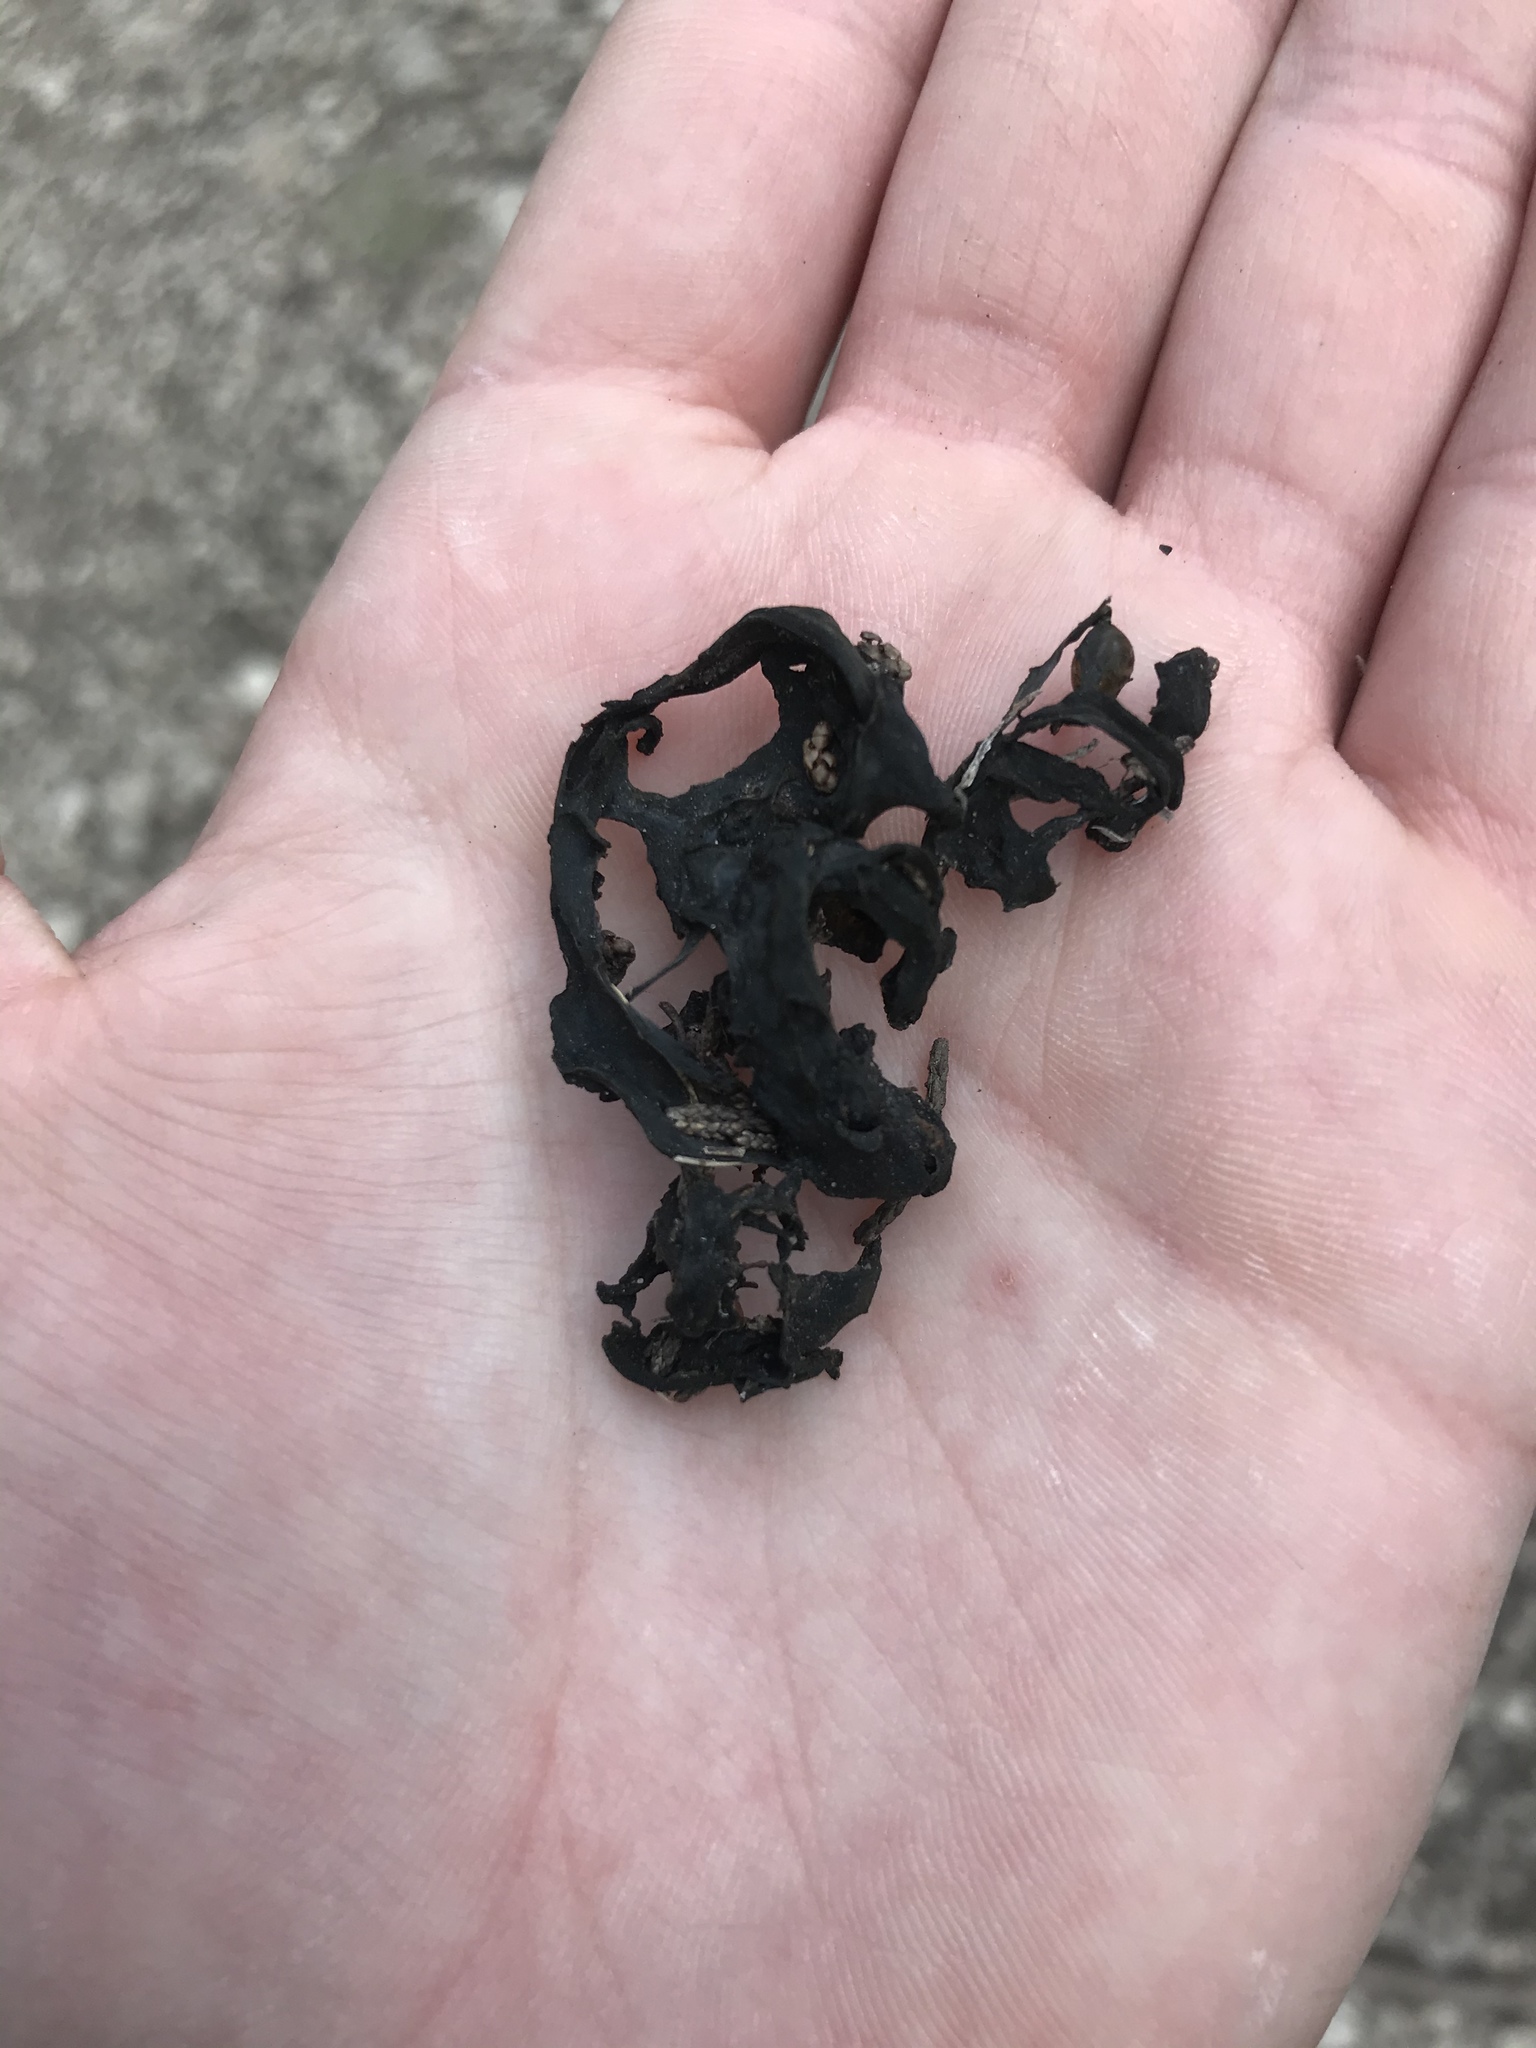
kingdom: Bacteria
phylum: Cyanobacteria
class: Cyanobacteriia
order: Cyanobacteriales
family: Nostocaceae
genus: Nostoc
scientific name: Nostoc commune
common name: Star jelly
